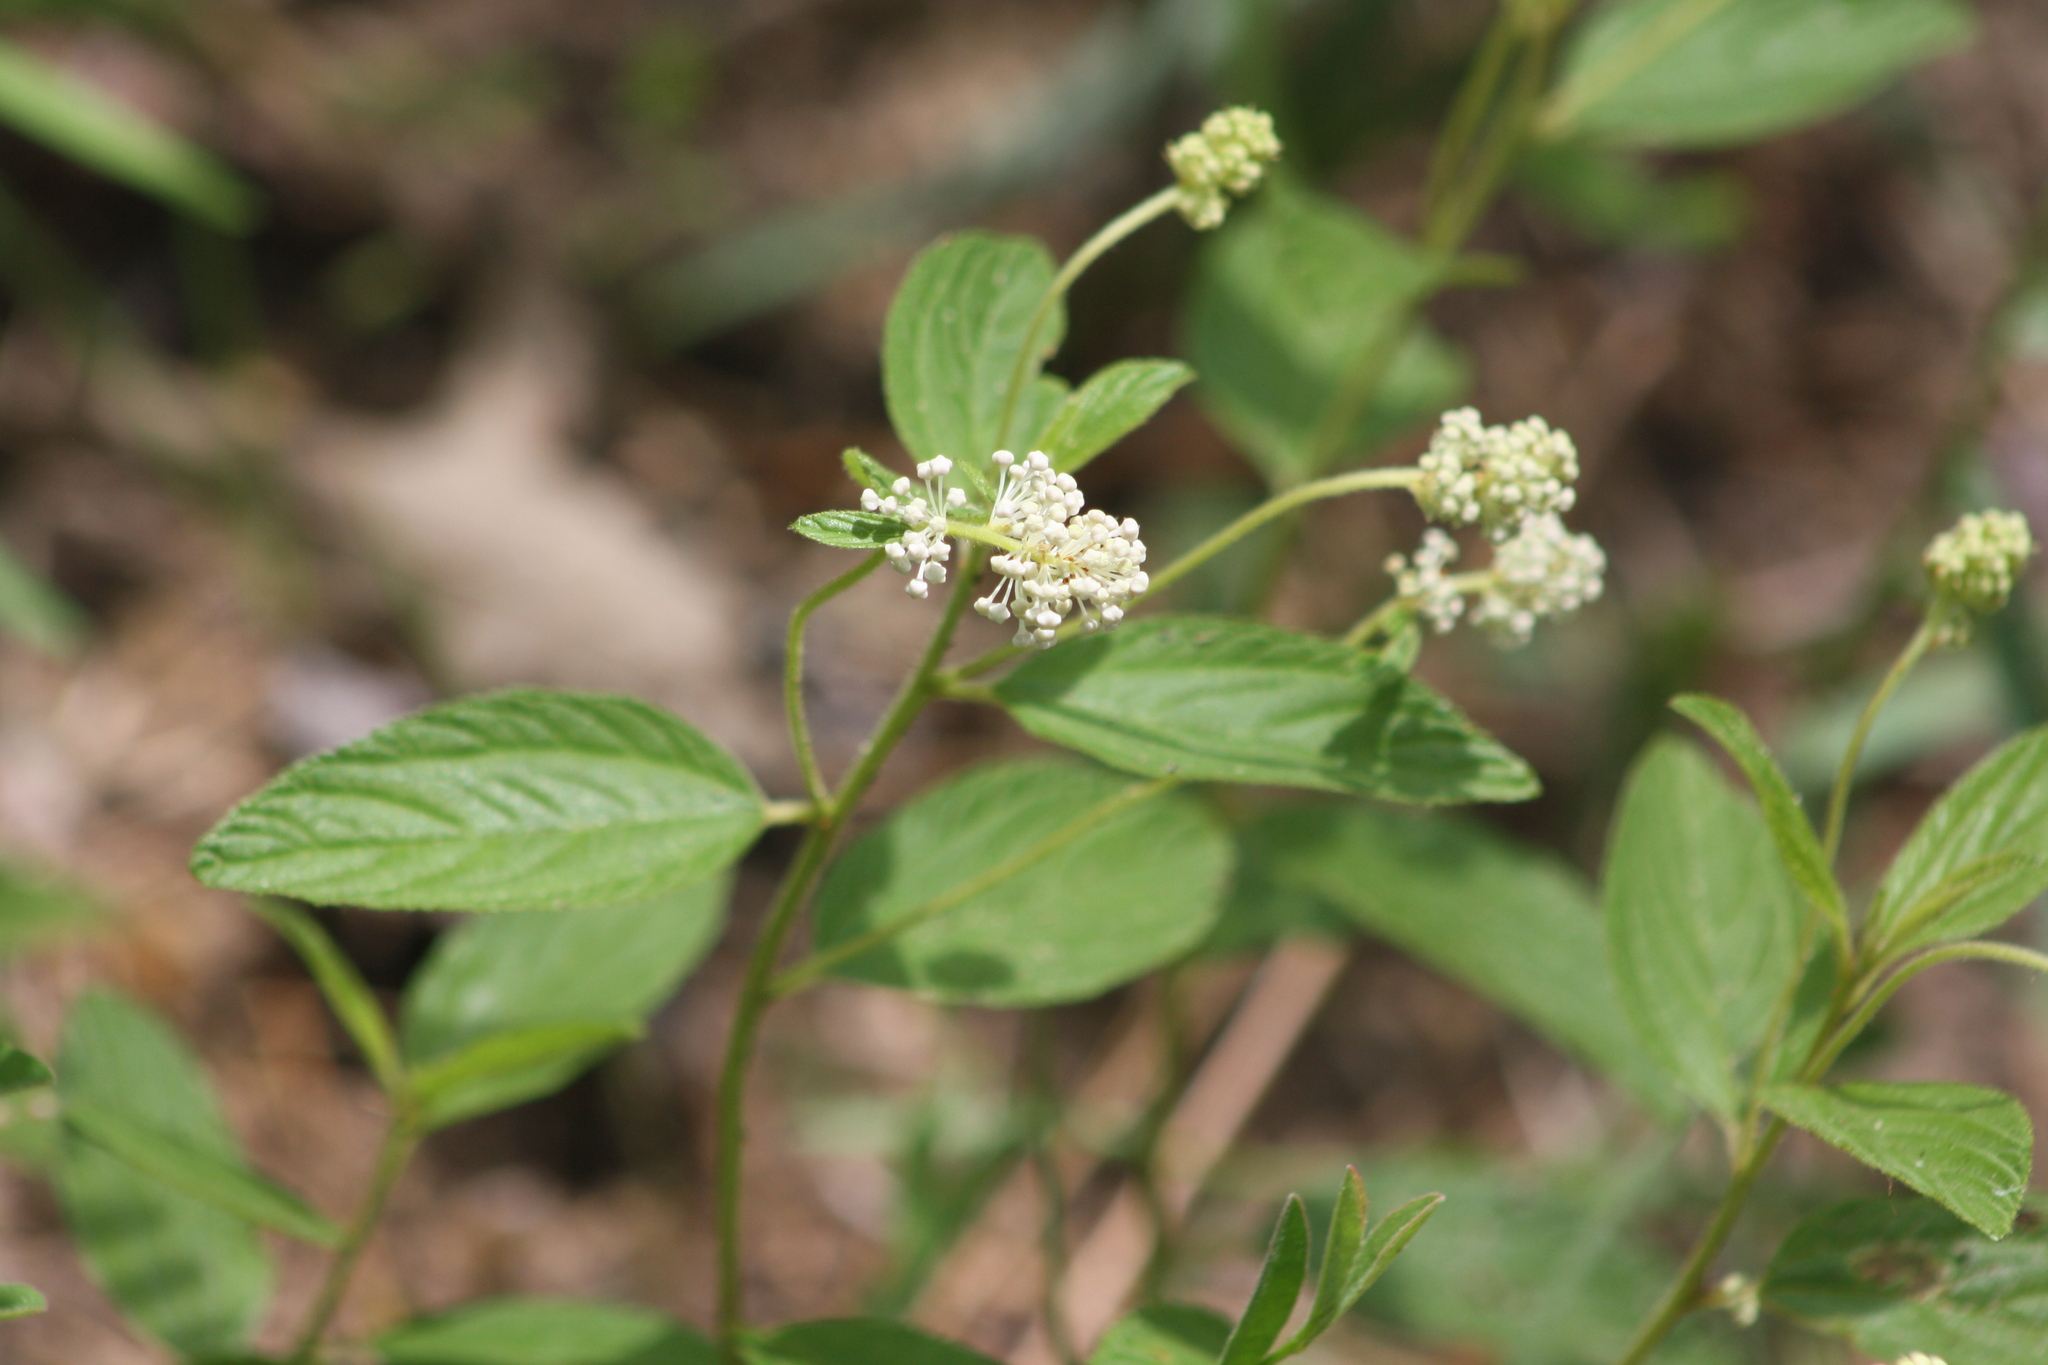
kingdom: Plantae
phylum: Tracheophyta
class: Magnoliopsida
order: Rosales
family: Rhamnaceae
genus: Ceanothus
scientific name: Ceanothus americanus
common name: Redroot
